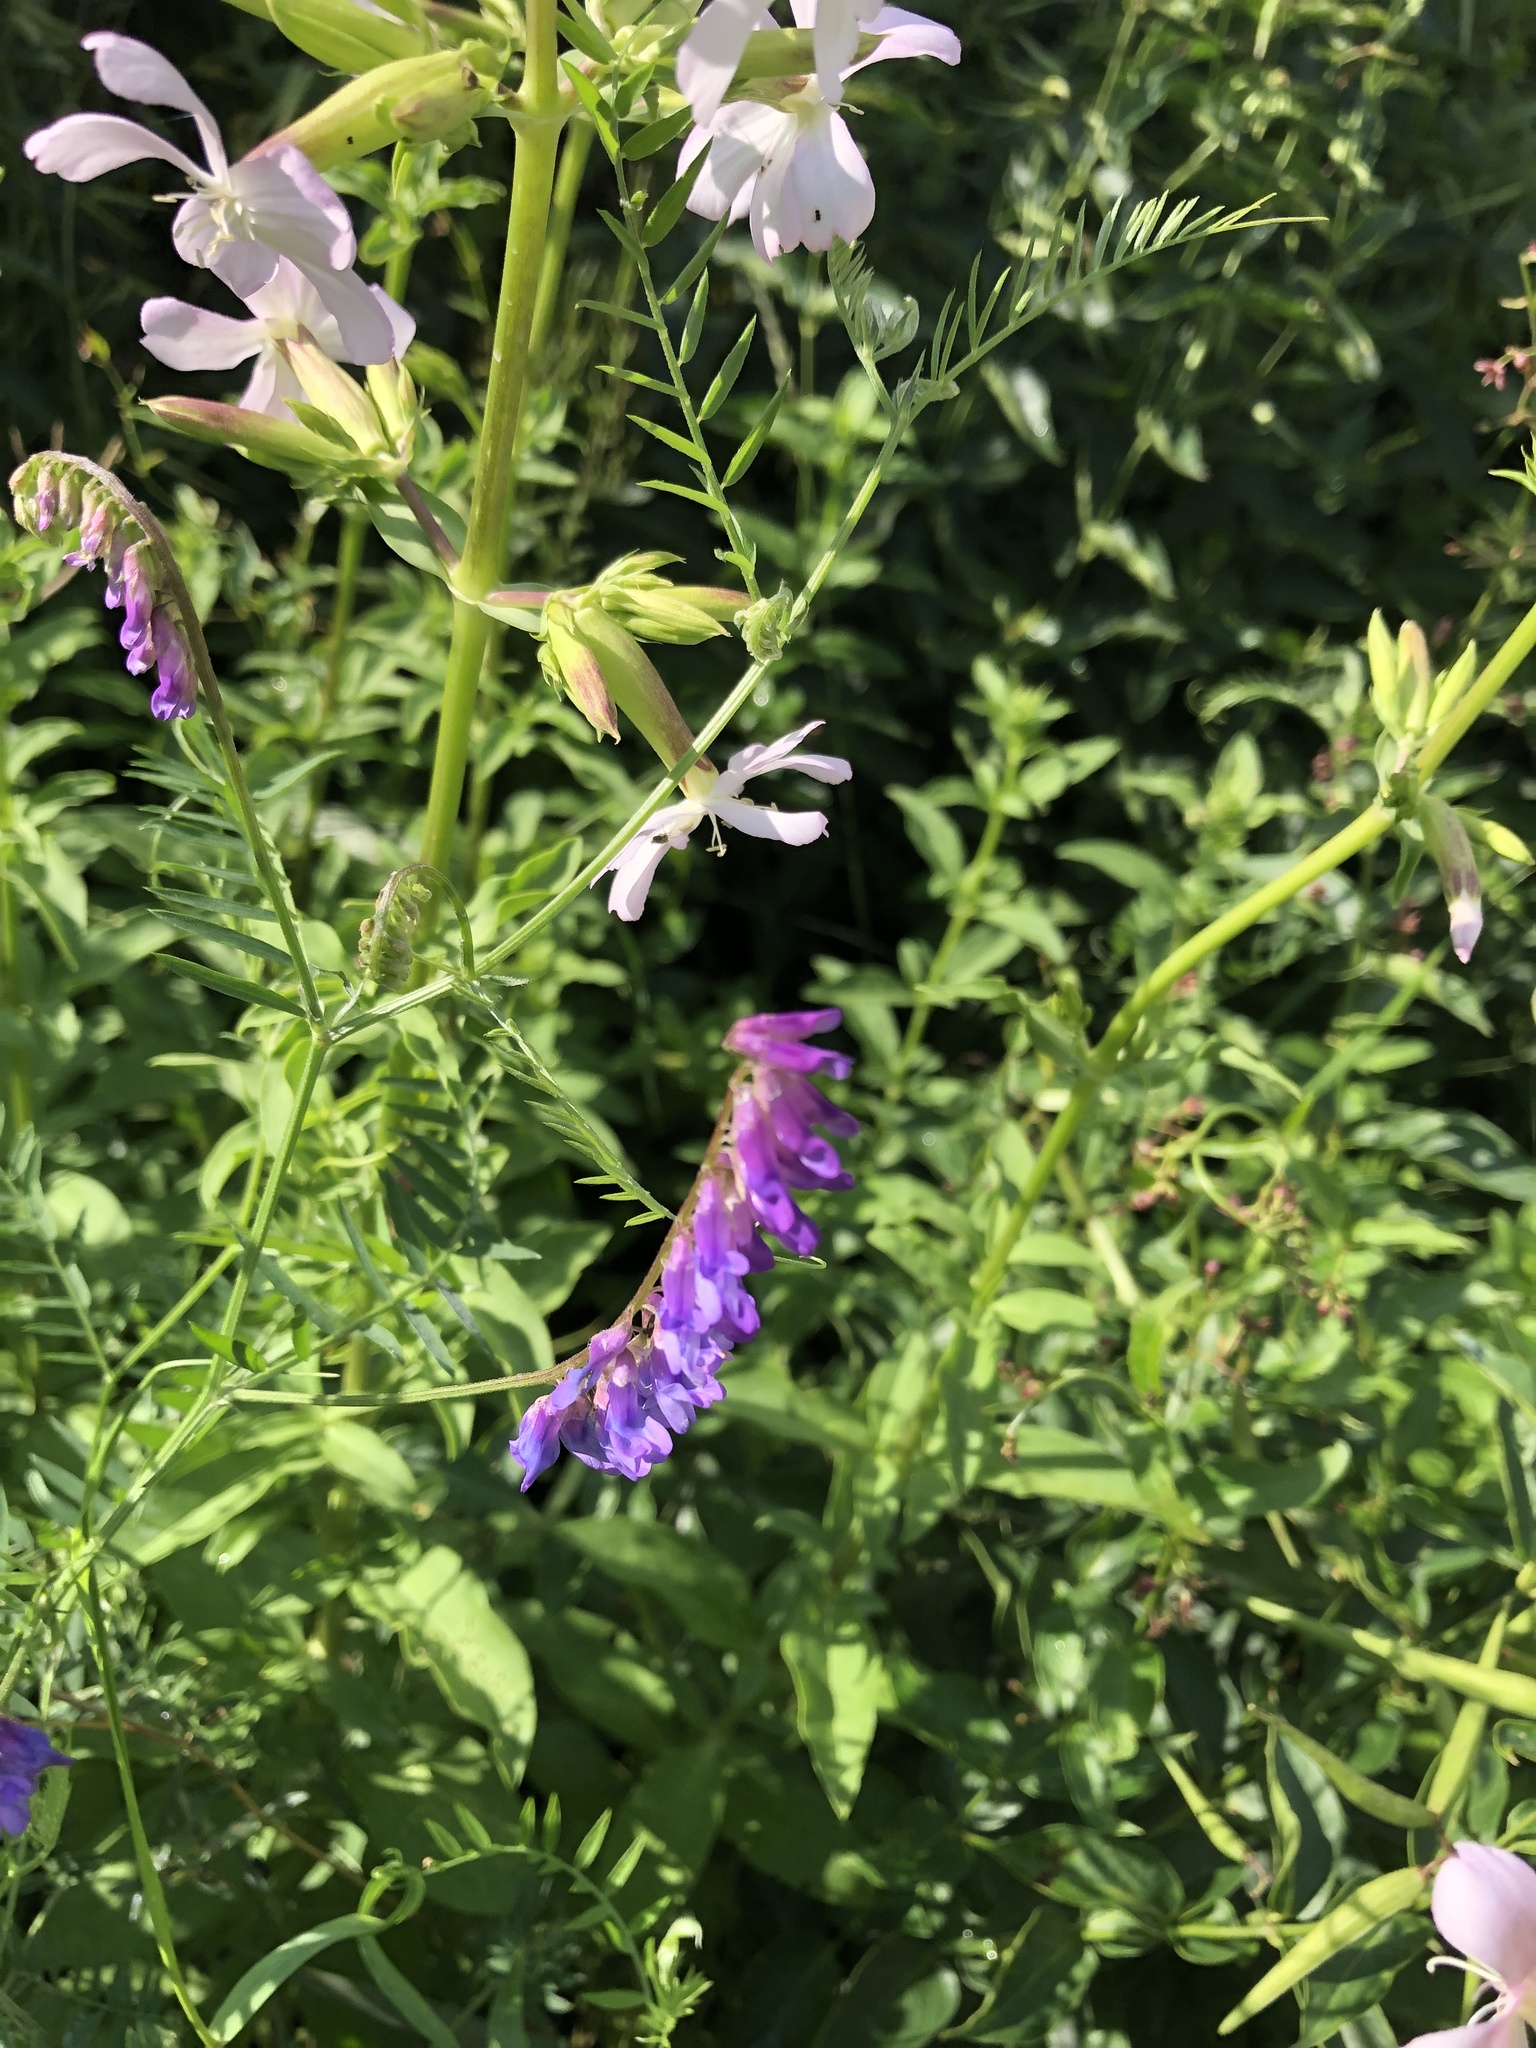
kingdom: Plantae
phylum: Tracheophyta
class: Magnoliopsida
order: Fabales
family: Fabaceae
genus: Vicia
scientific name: Vicia cracca
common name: Bird vetch
